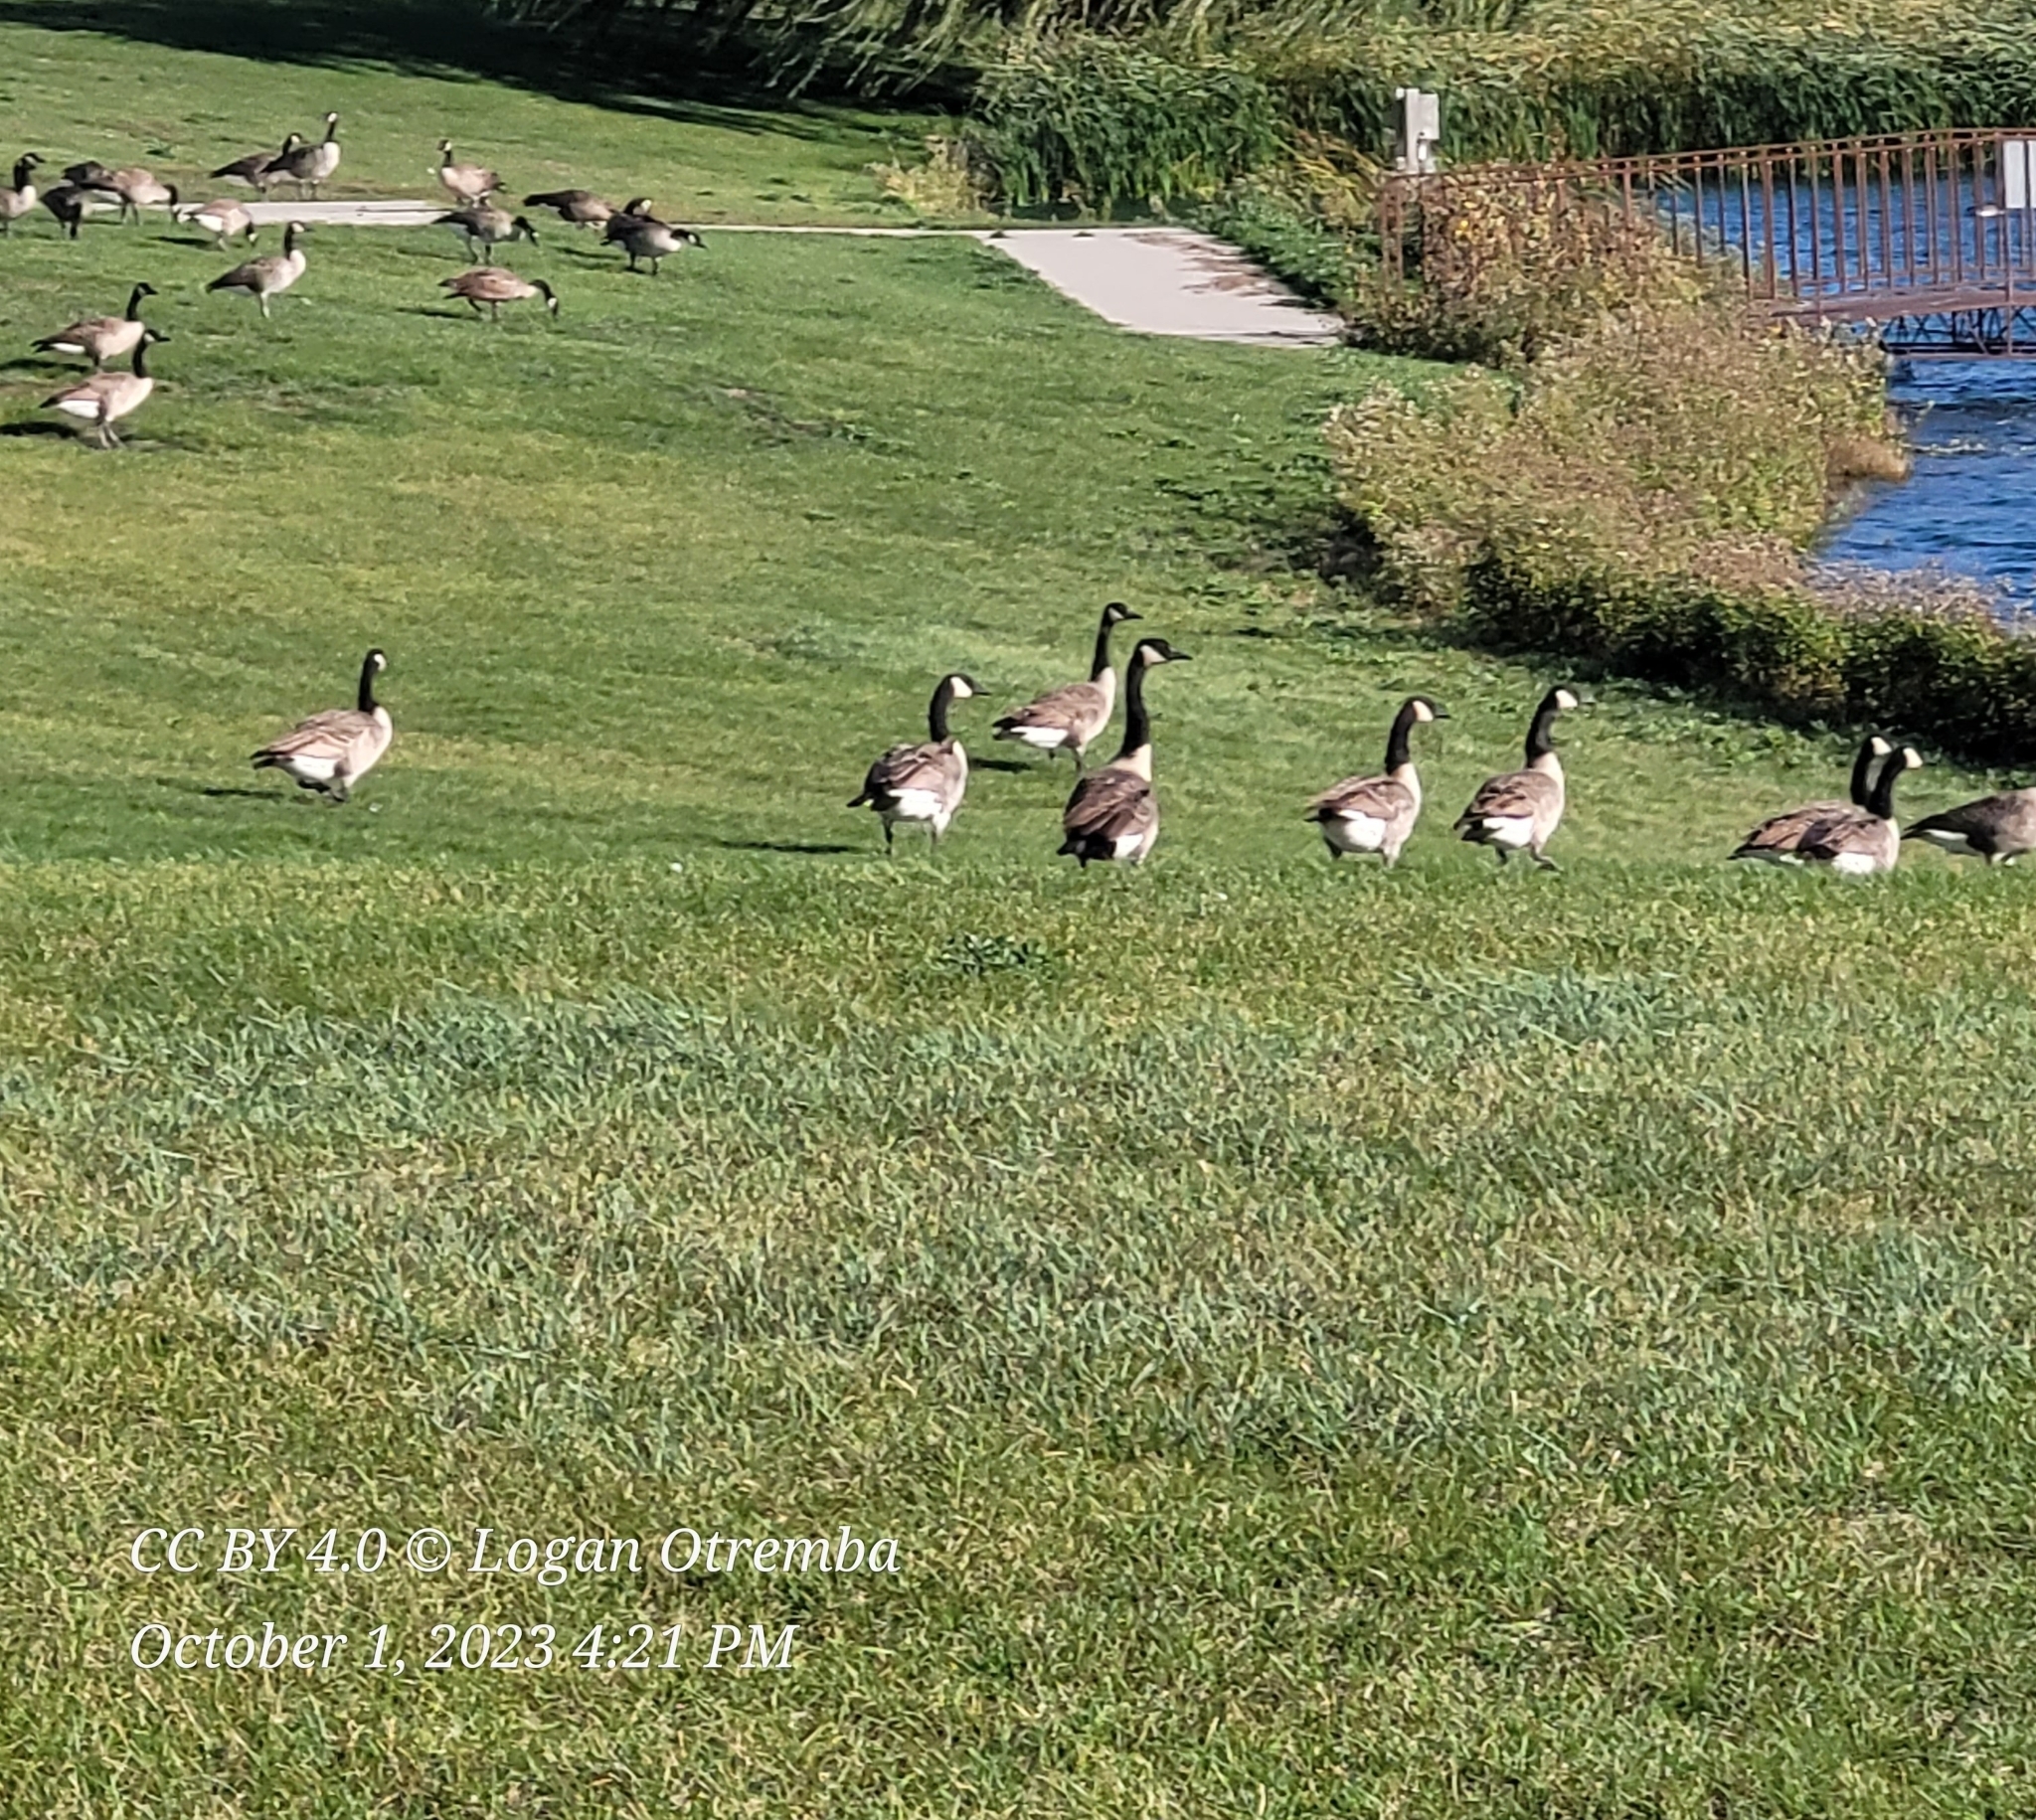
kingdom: Animalia
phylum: Chordata
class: Aves
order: Anseriformes
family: Anatidae
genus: Branta
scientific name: Branta canadensis
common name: Canada goose
